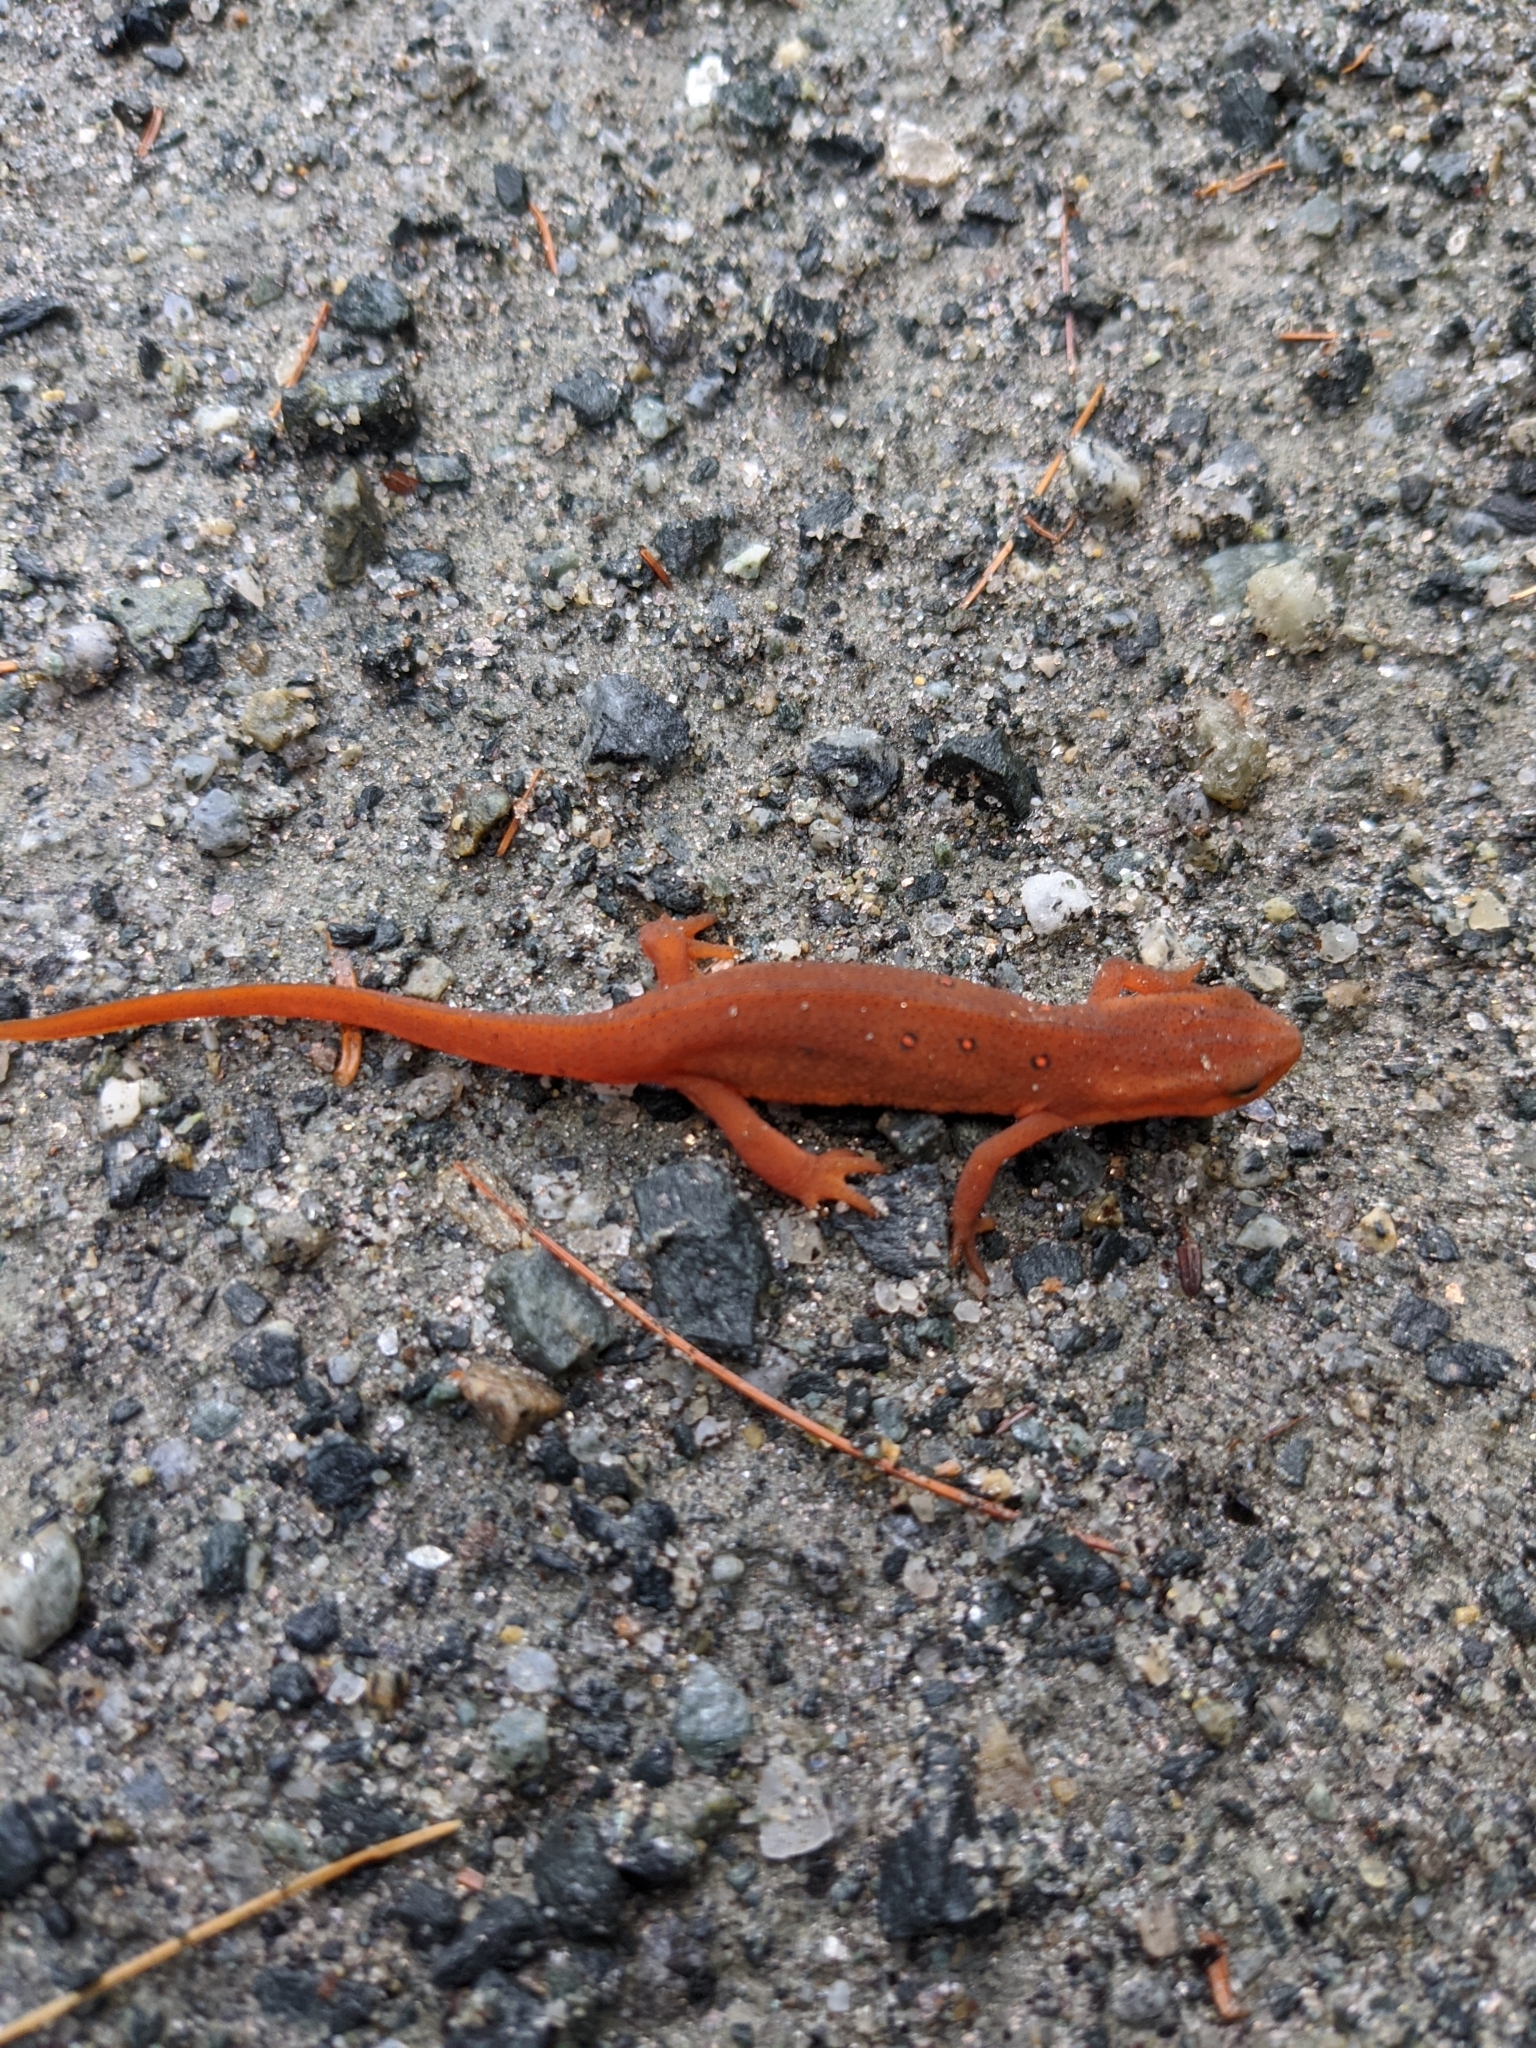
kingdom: Animalia
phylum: Chordata
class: Amphibia
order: Caudata
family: Salamandridae
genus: Notophthalmus
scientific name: Notophthalmus viridescens
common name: Eastern newt
